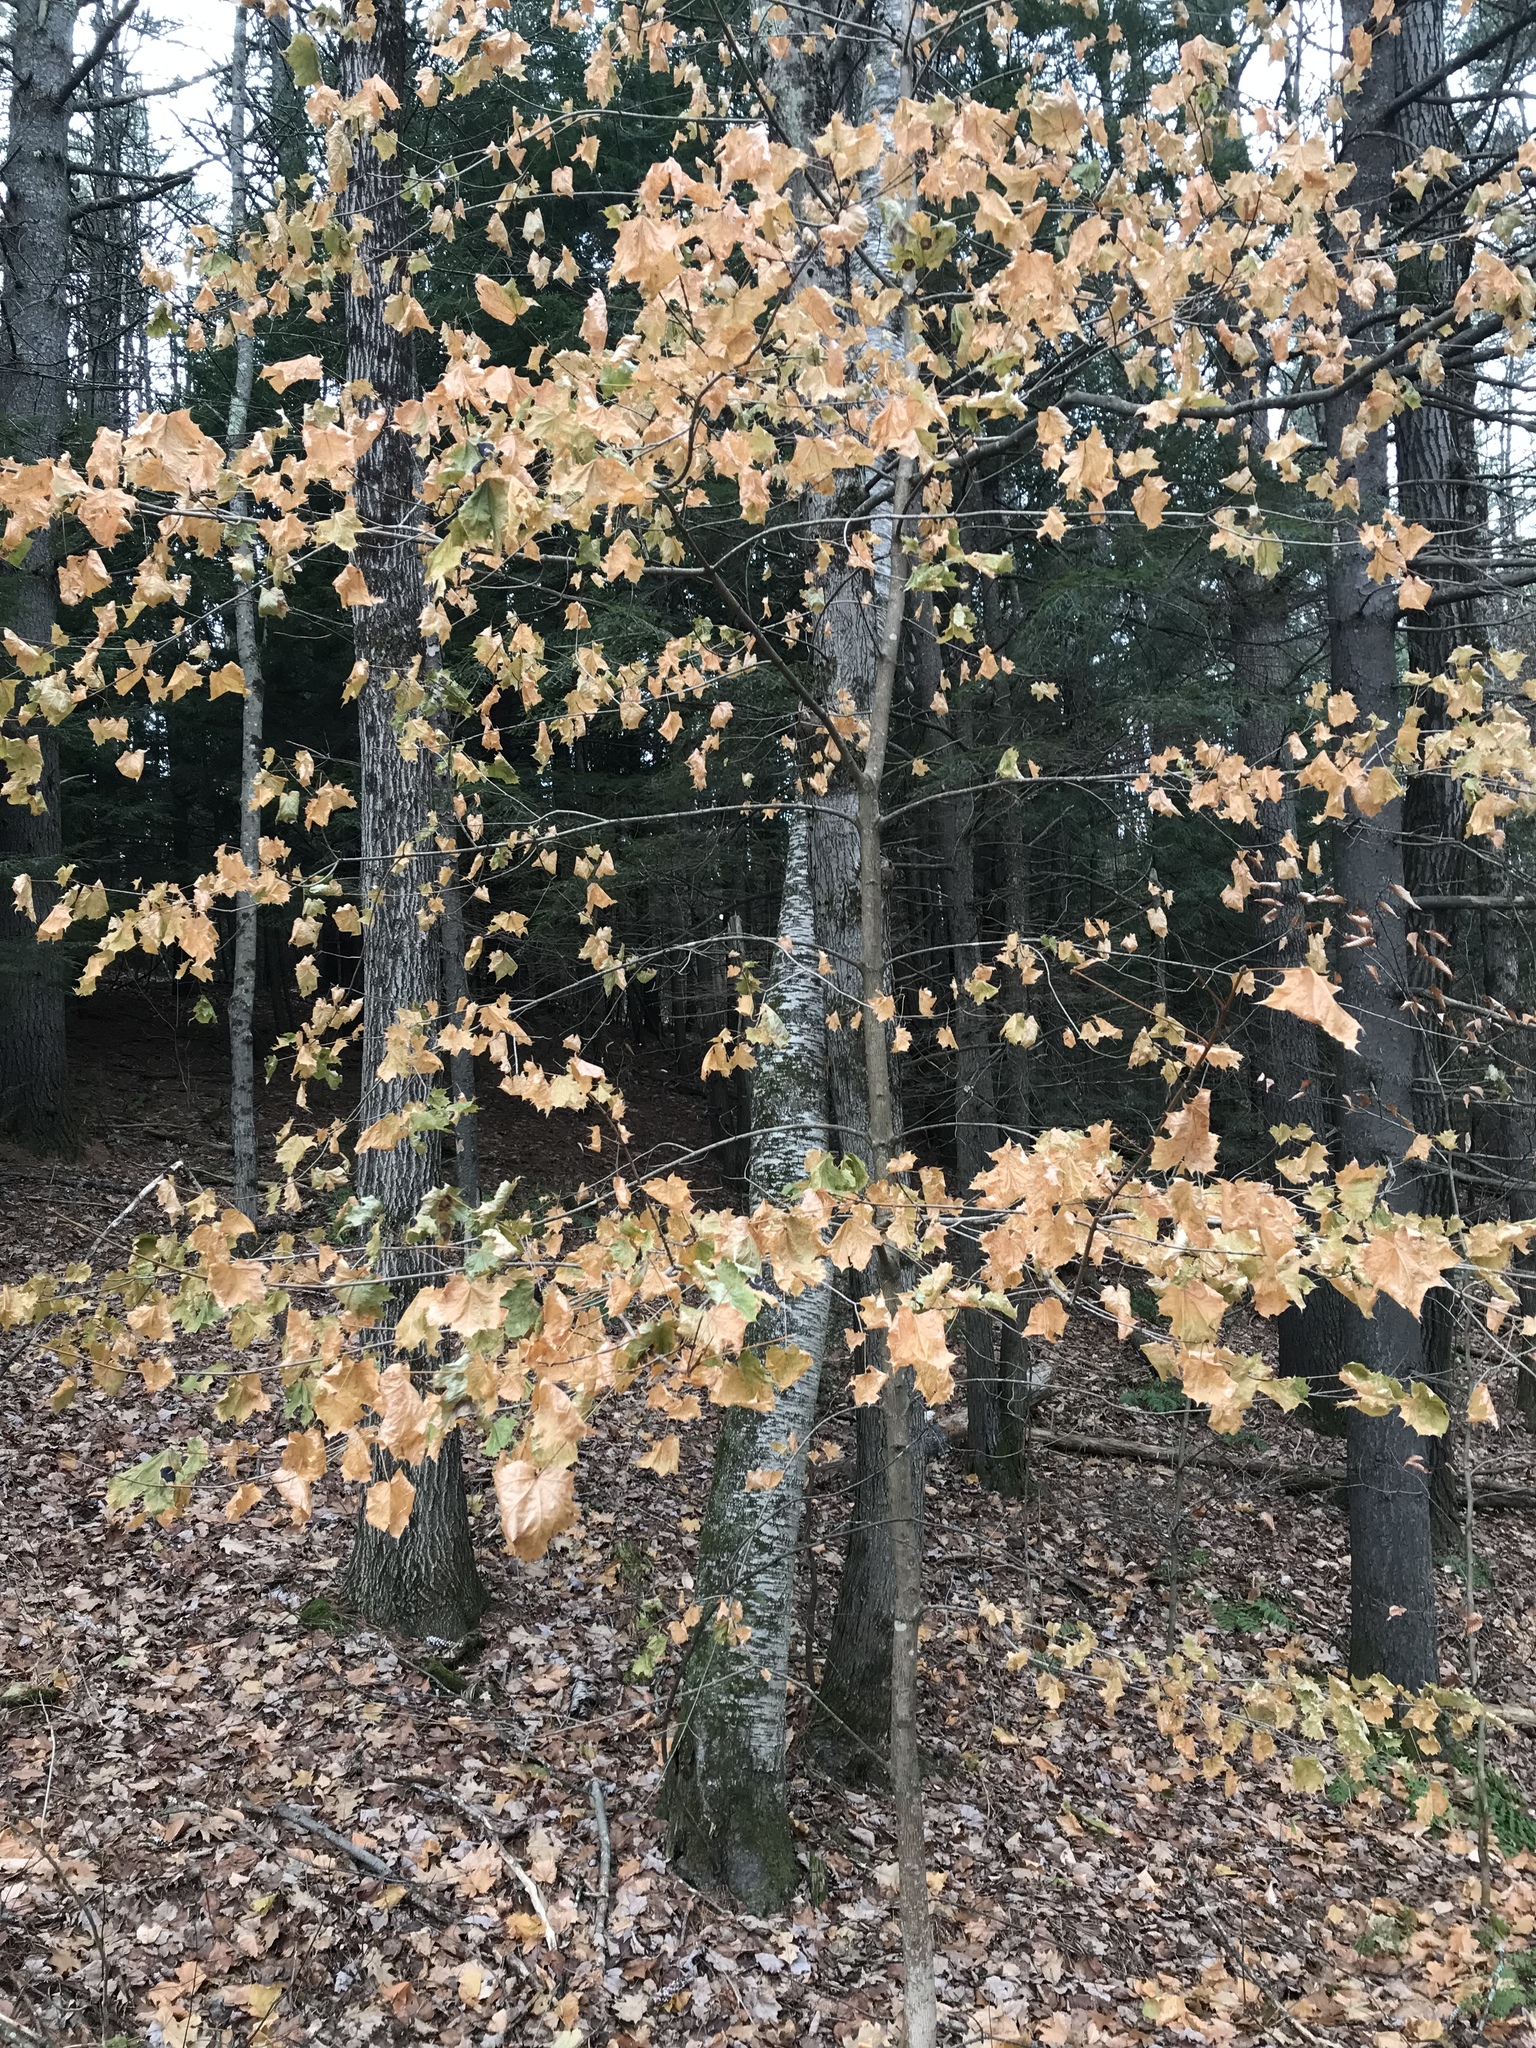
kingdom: Plantae
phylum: Tracheophyta
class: Magnoliopsida
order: Sapindales
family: Sapindaceae
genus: Acer
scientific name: Acer platanoides
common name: Norway maple
